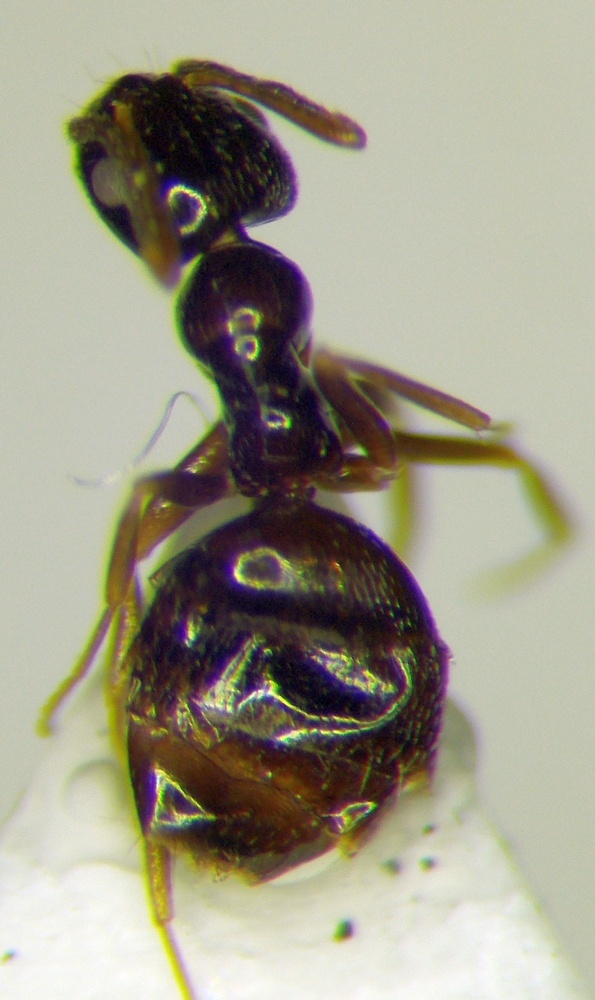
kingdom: Animalia
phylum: Arthropoda
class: Insecta
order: Hymenoptera
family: Formicidae
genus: Plagiolepis
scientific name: Plagiolepis pallescens
